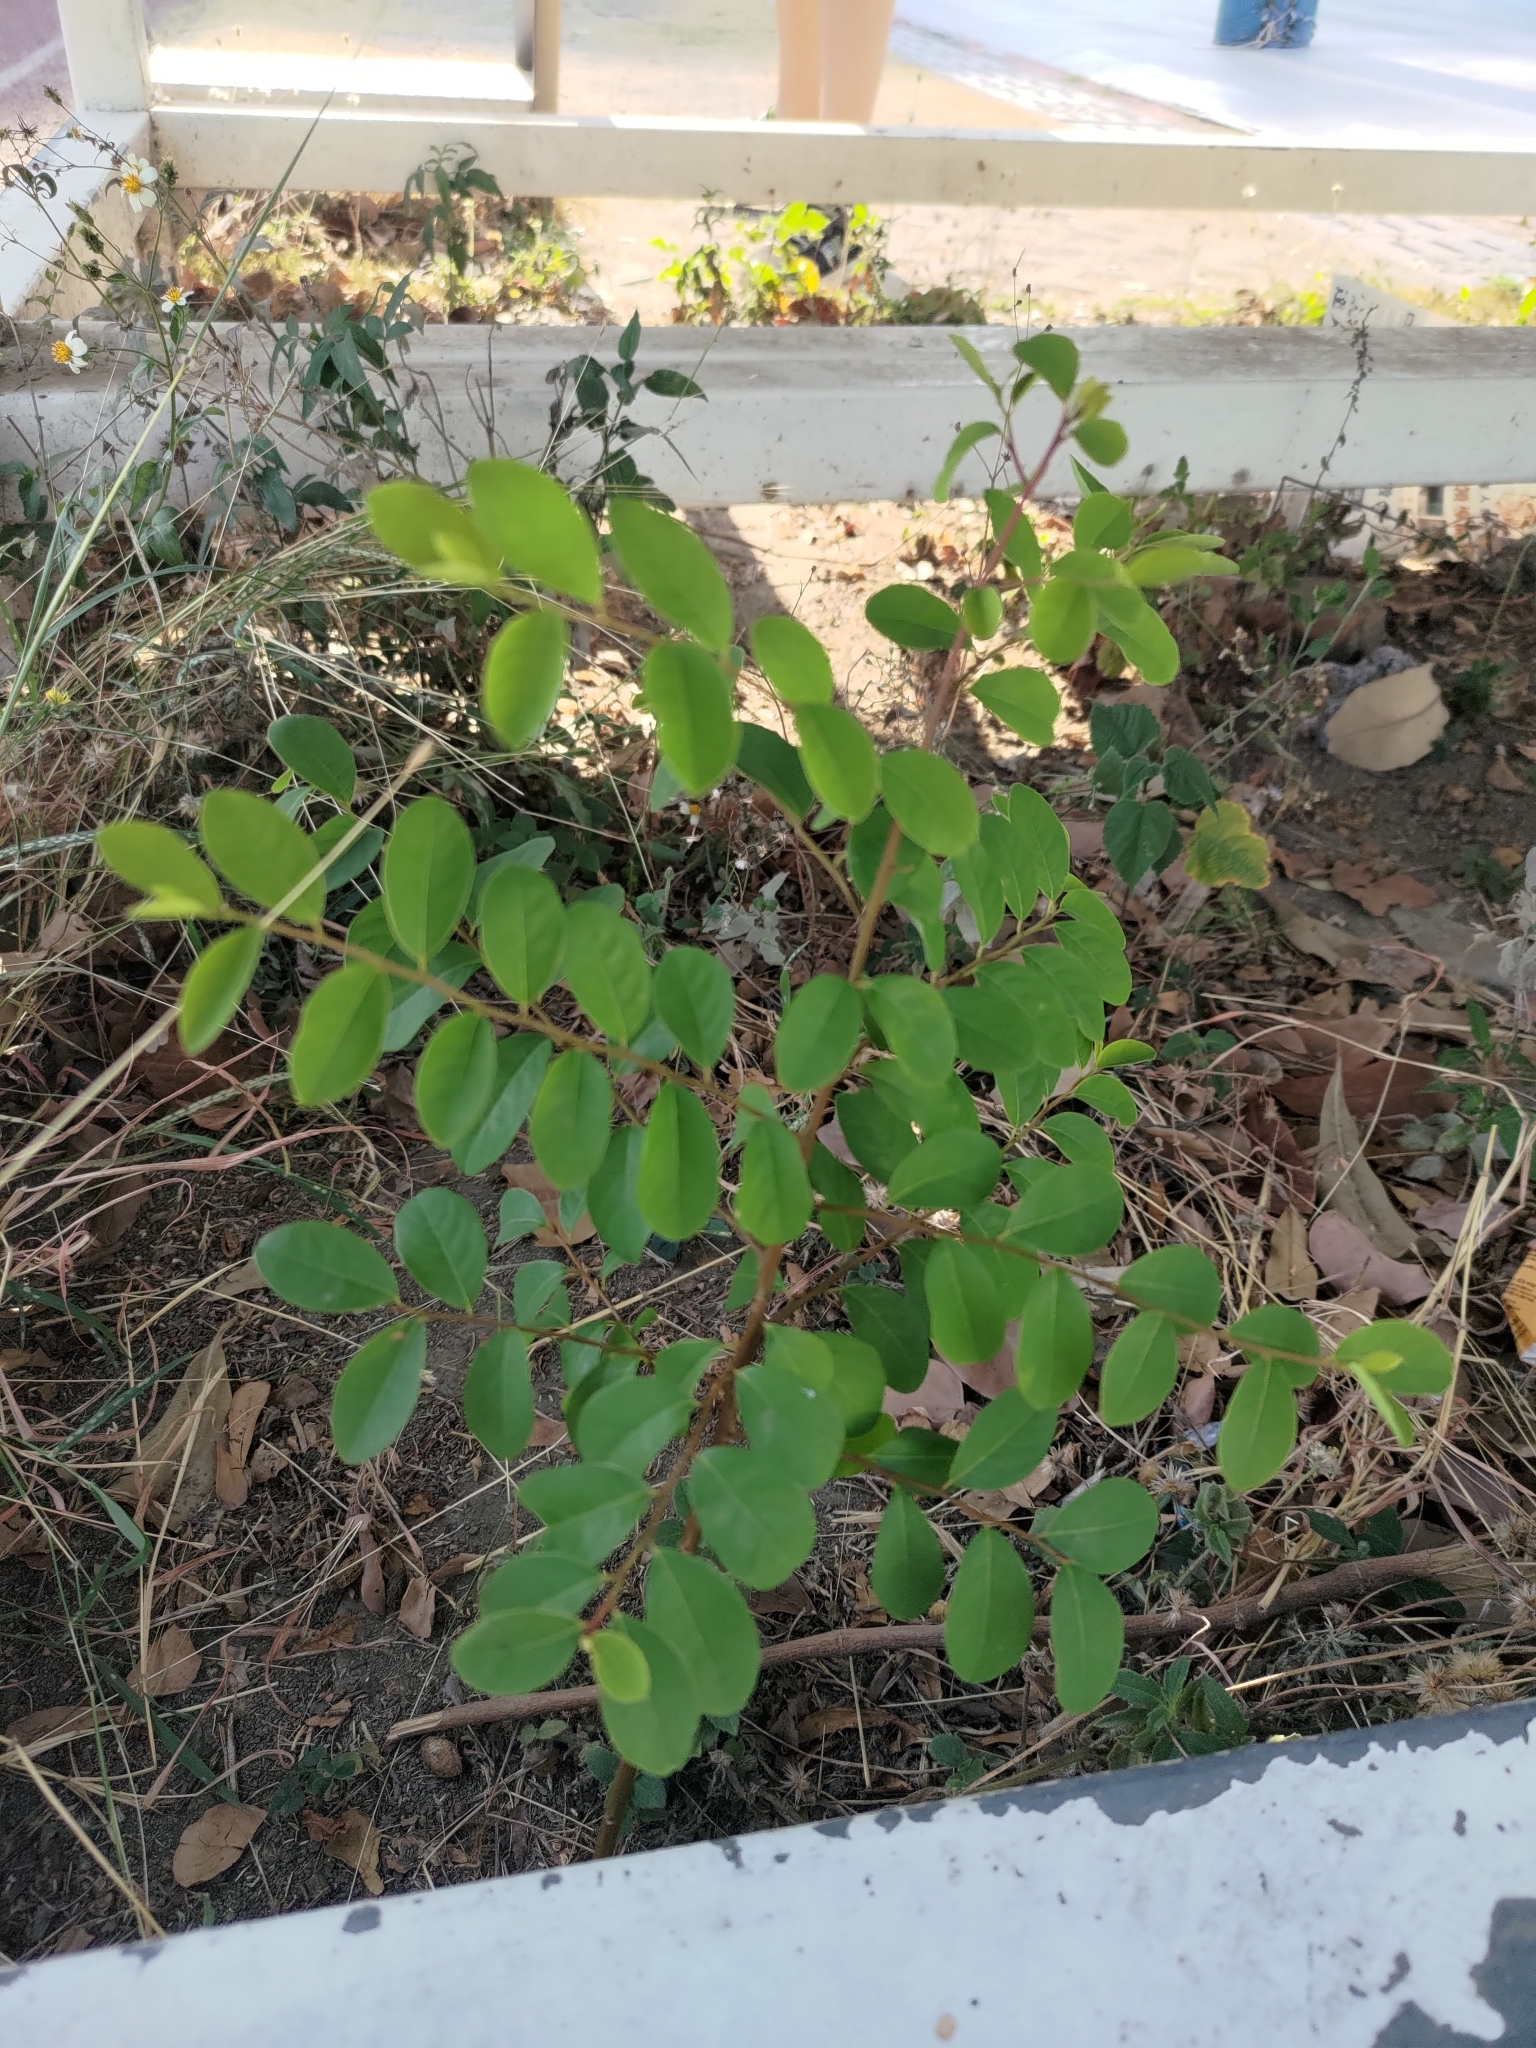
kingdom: Plantae
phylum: Tracheophyta
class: Magnoliopsida
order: Malpighiales
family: Phyllanthaceae
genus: Flueggea
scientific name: Flueggea virosa
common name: Common bushweed
